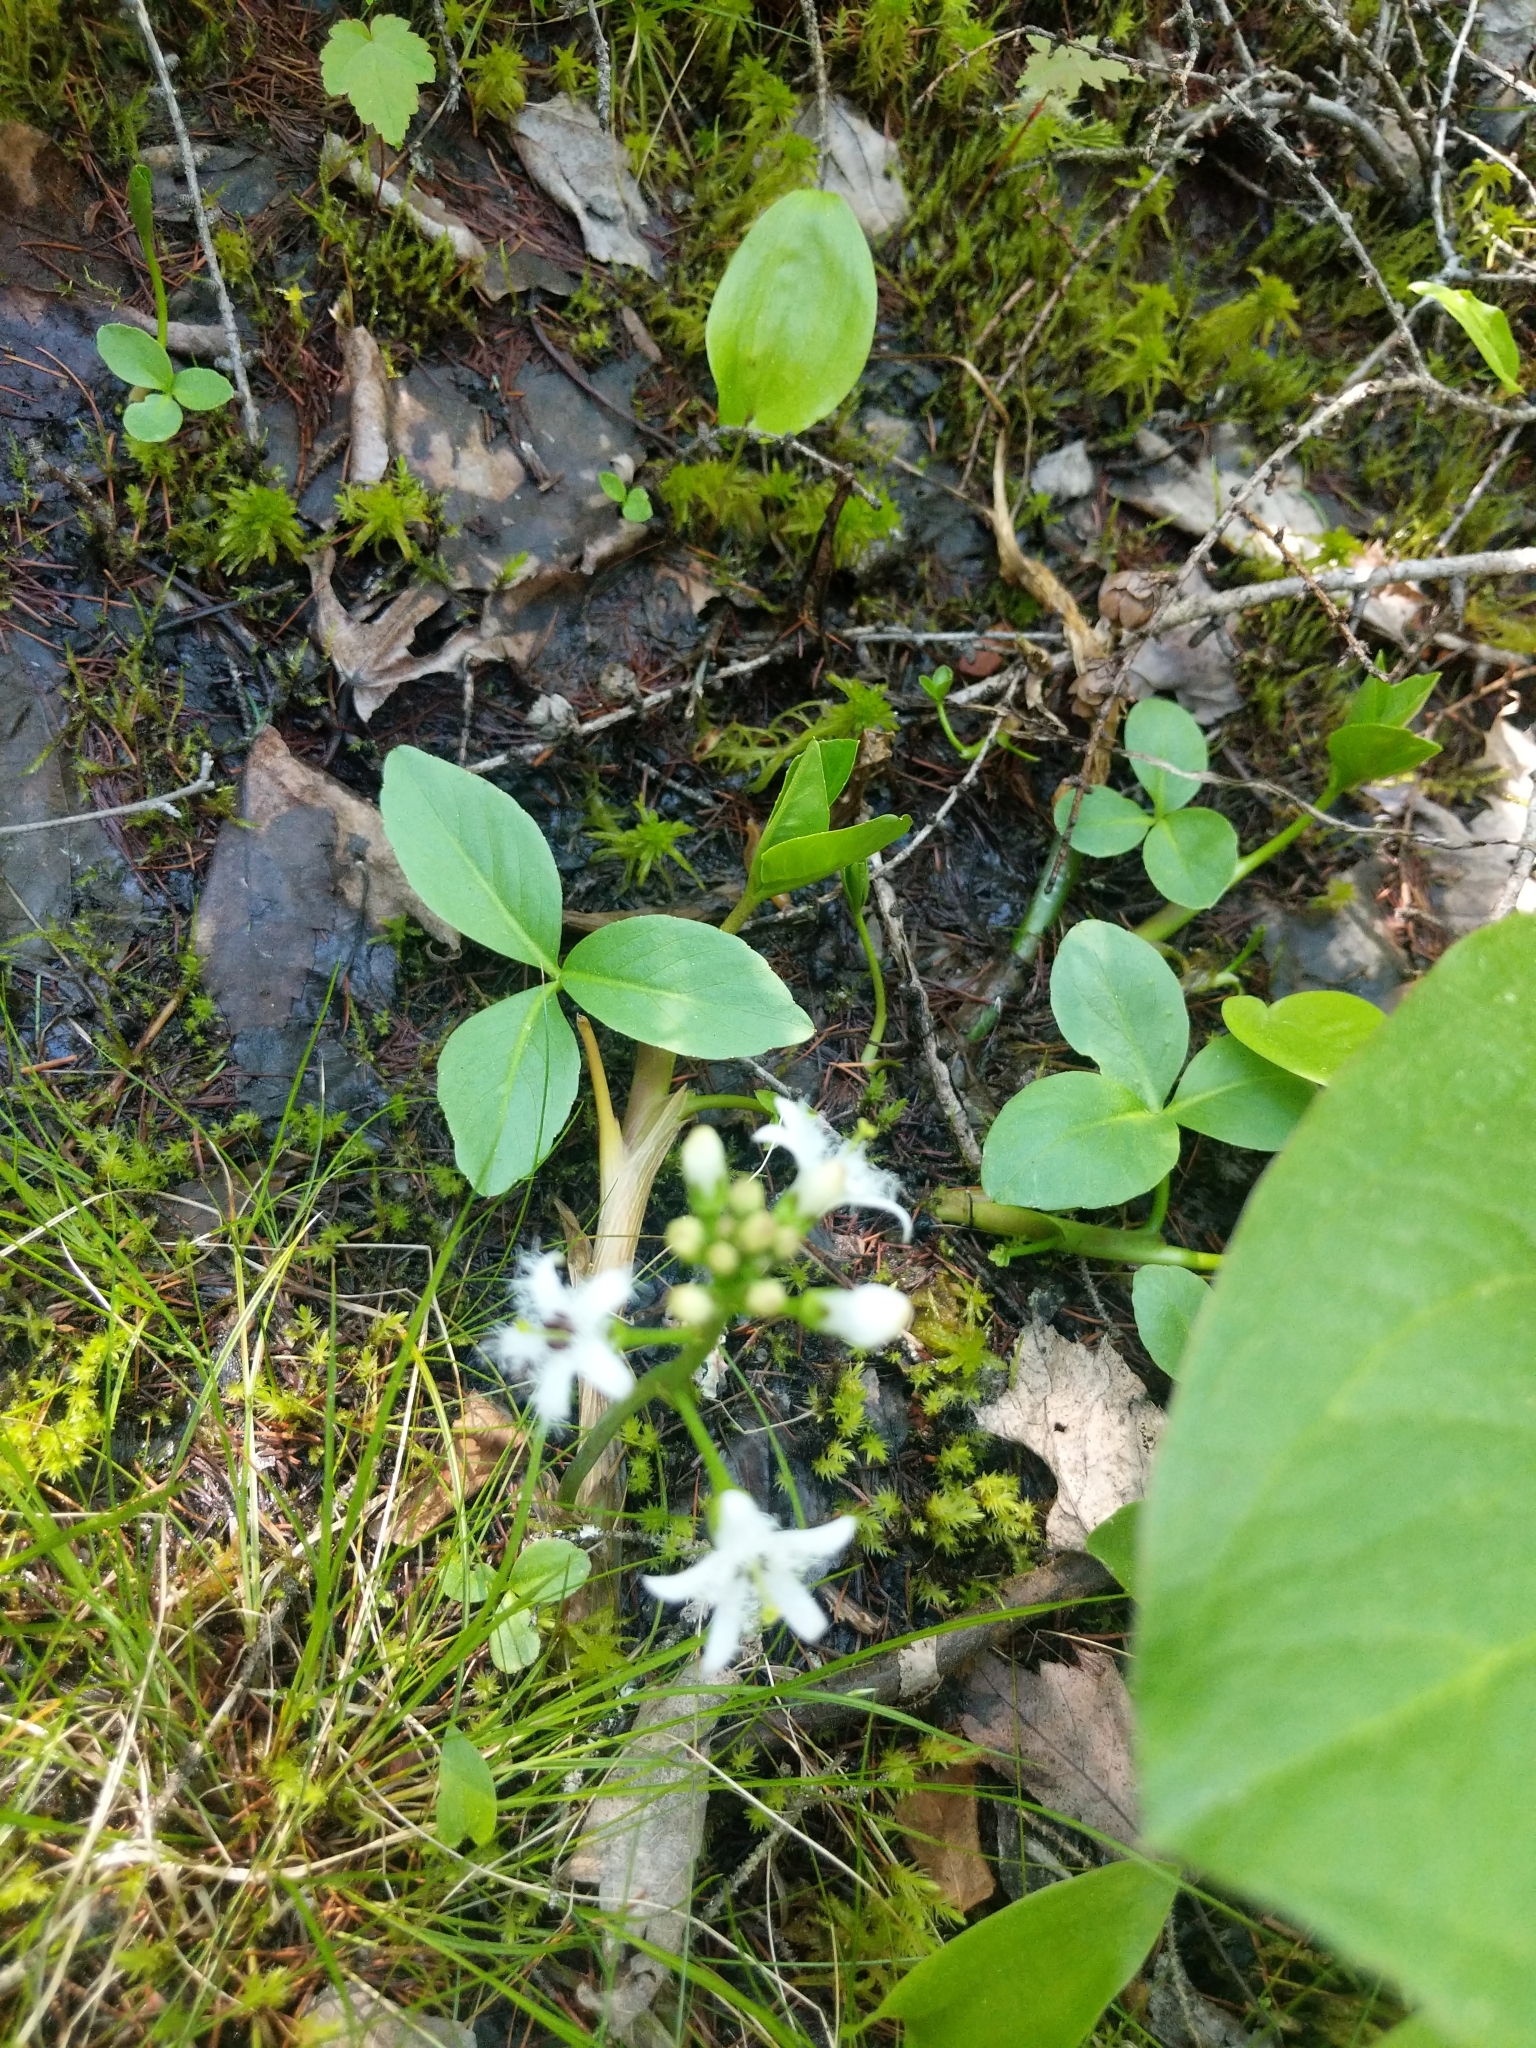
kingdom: Plantae
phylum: Tracheophyta
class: Magnoliopsida
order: Asterales
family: Menyanthaceae
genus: Menyanthes
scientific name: Menyanthes trifoliata
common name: Bogbean
